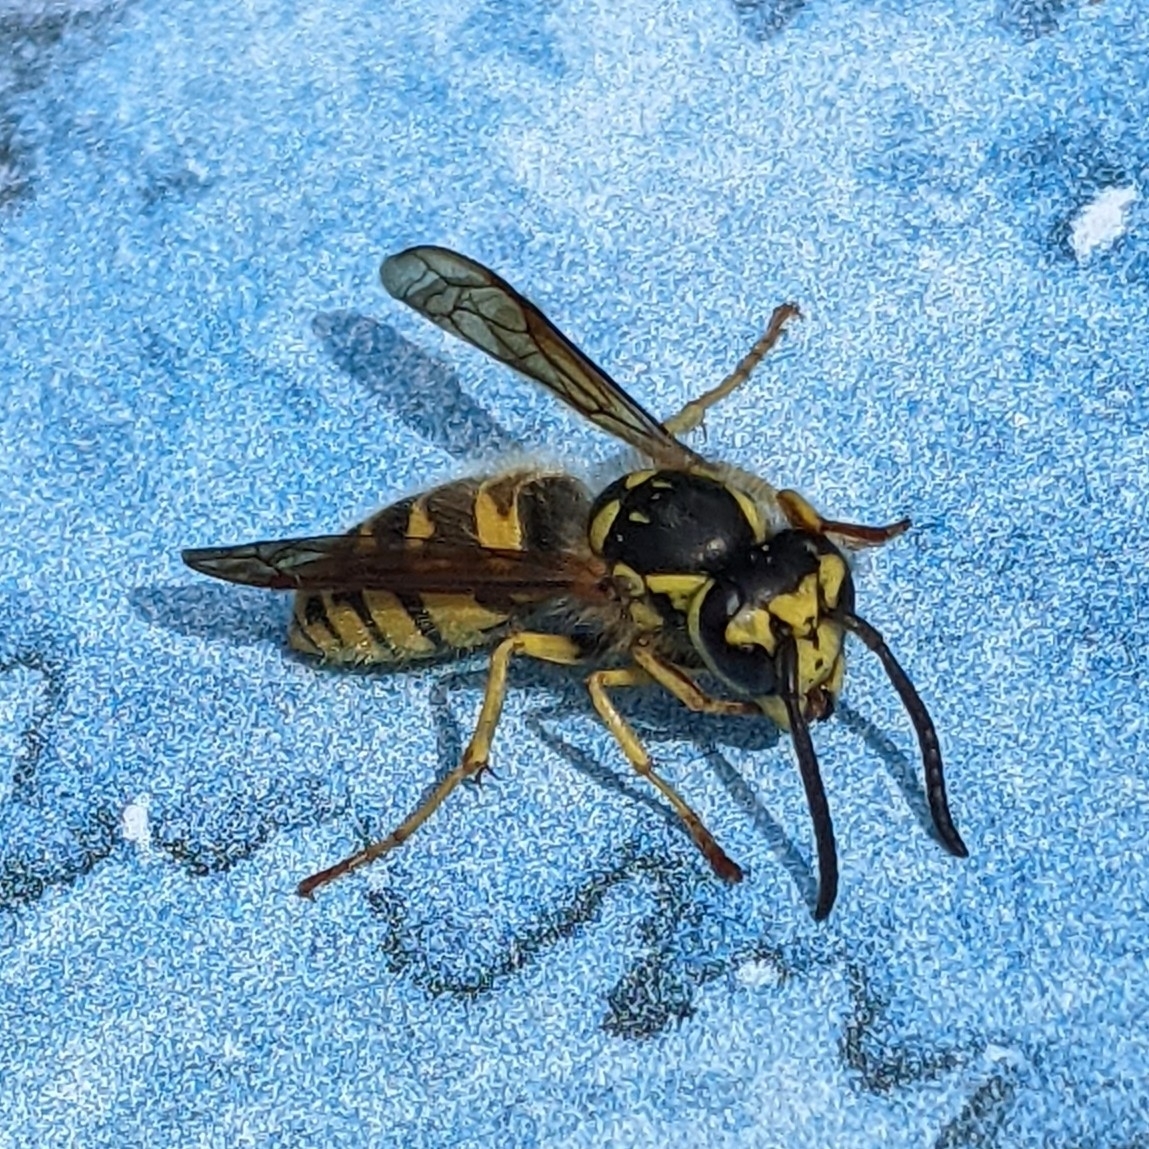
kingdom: Animalia
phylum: Arthropoda
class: Insecta
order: Hymenoptera
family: Vespidae
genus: Vespula
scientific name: Vespula flavopilosa
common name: Downy yellowjacket
